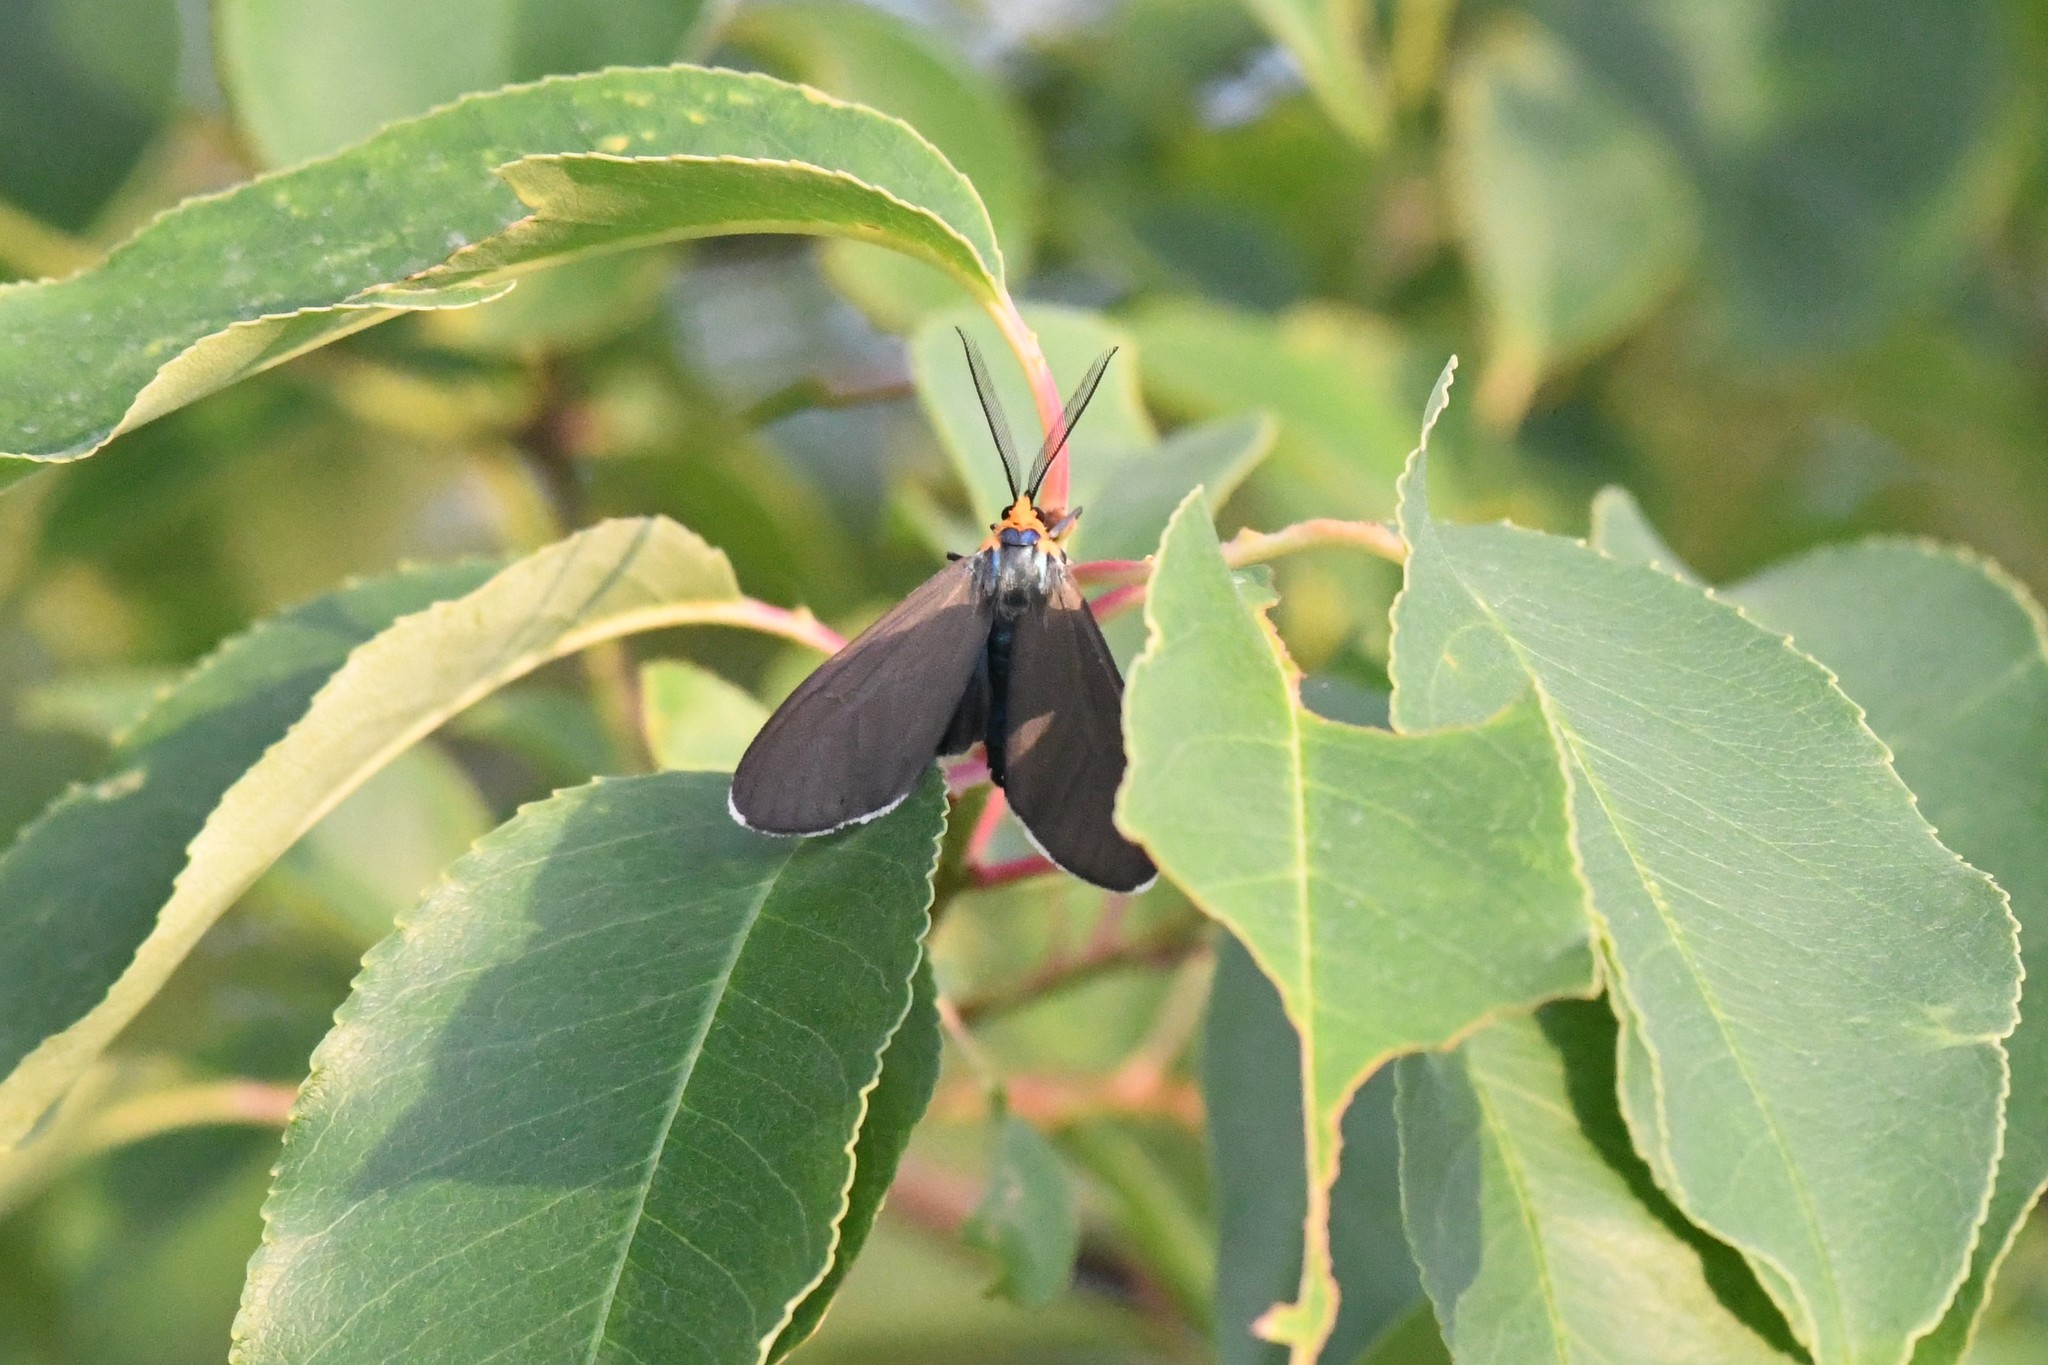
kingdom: Animalia
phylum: Arthropoda
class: Insecta
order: Lepidoptera
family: Erebidae
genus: Ctenucha
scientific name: Ctenucha virginica
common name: Virginia ctenucha moth
